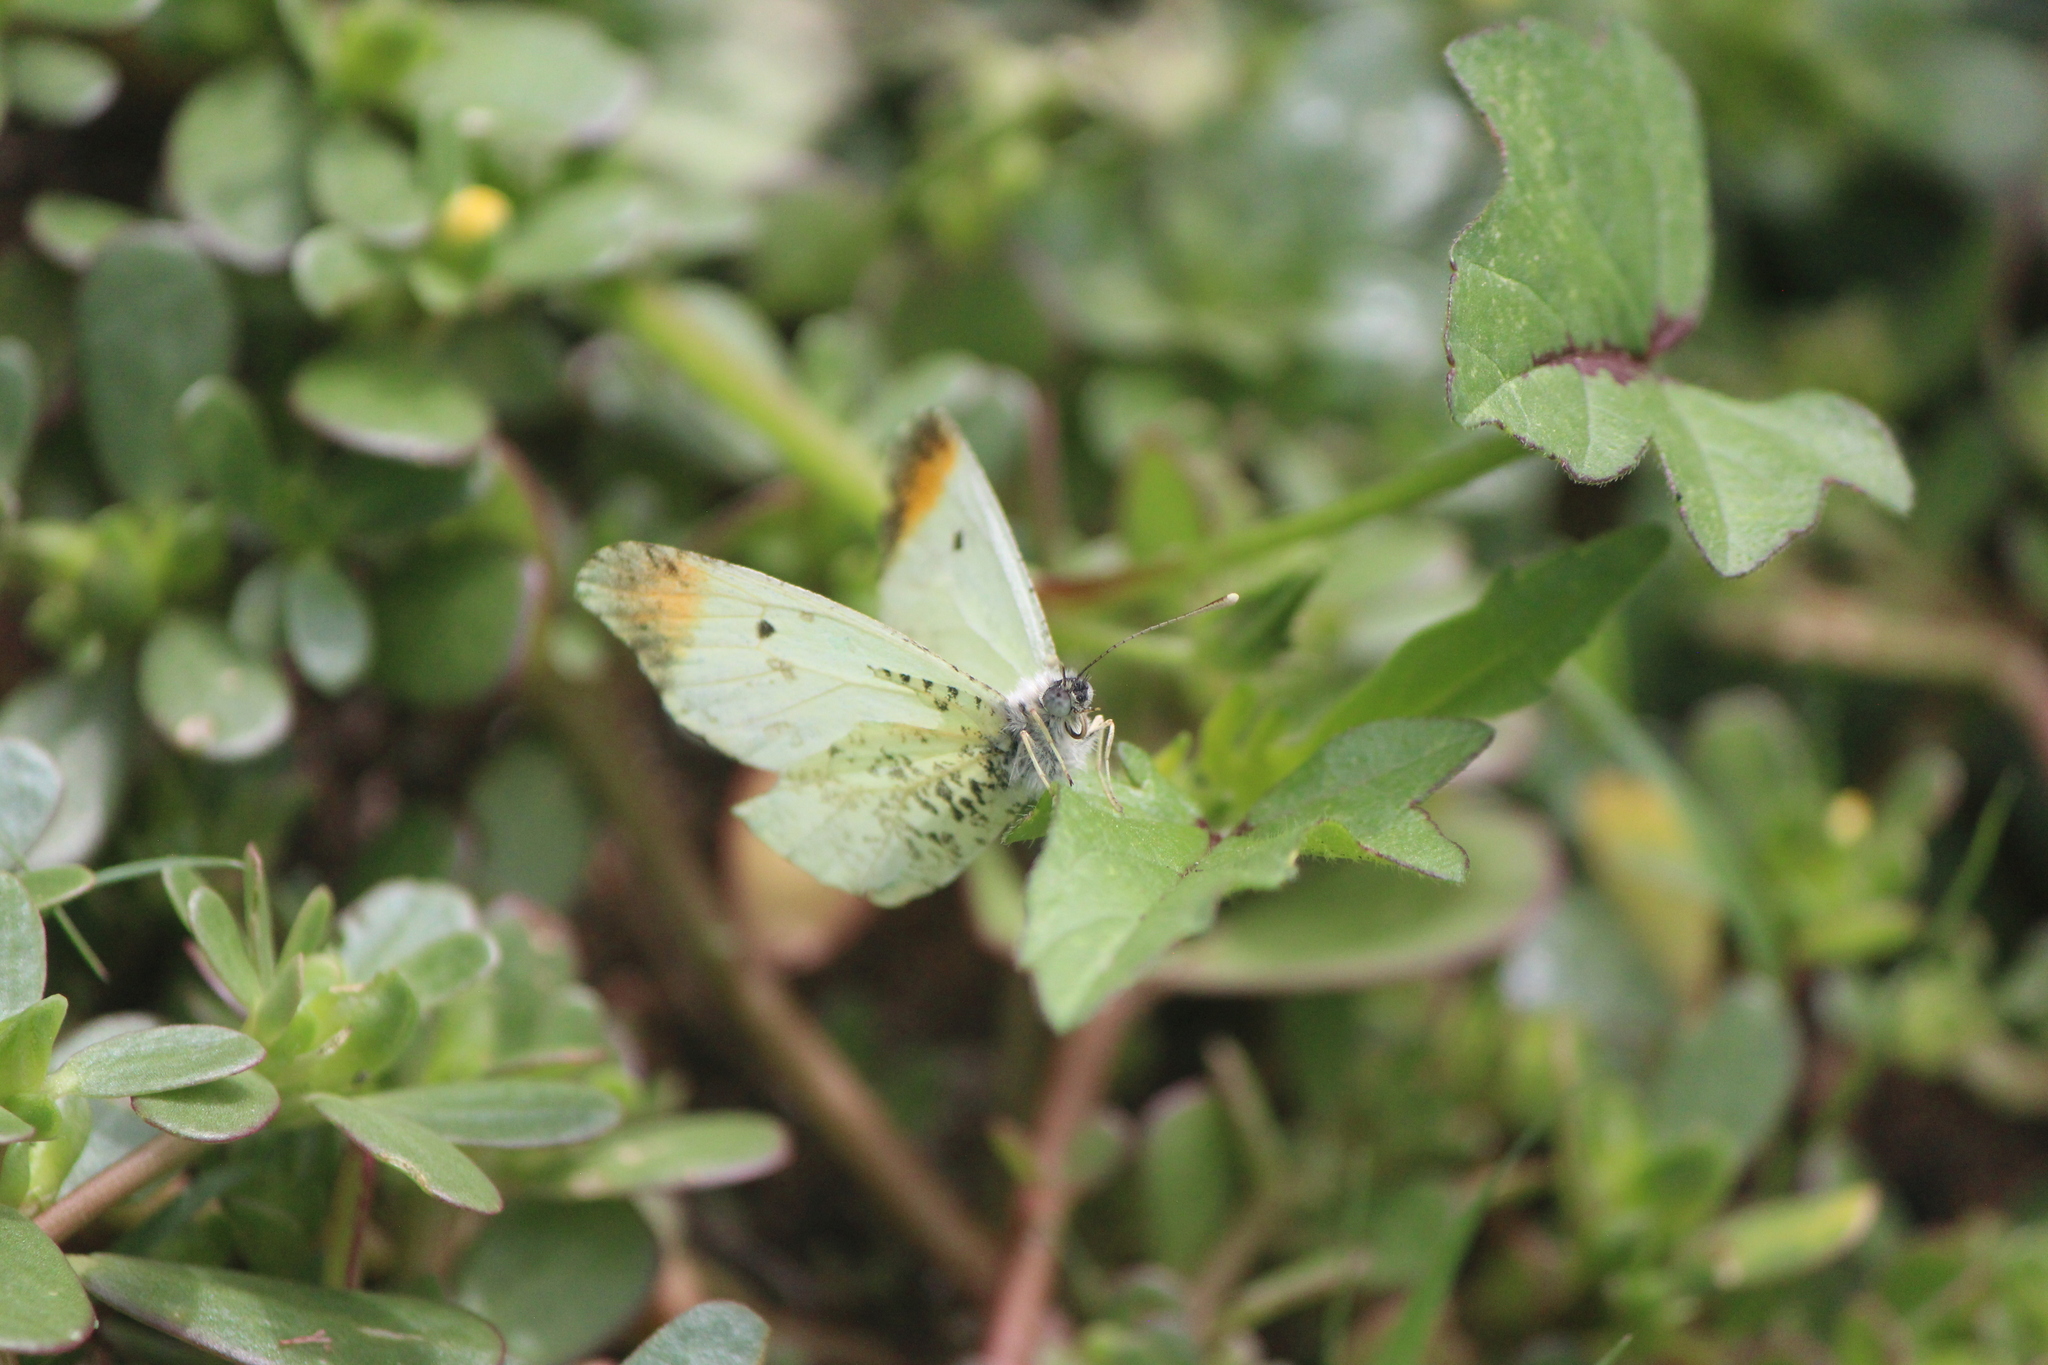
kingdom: Animalia
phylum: Arthropoda
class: Insecta
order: Lepidoptera
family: Pieridae
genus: Anthocharis
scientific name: Anthocharis limonea
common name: Mexican orangetip
